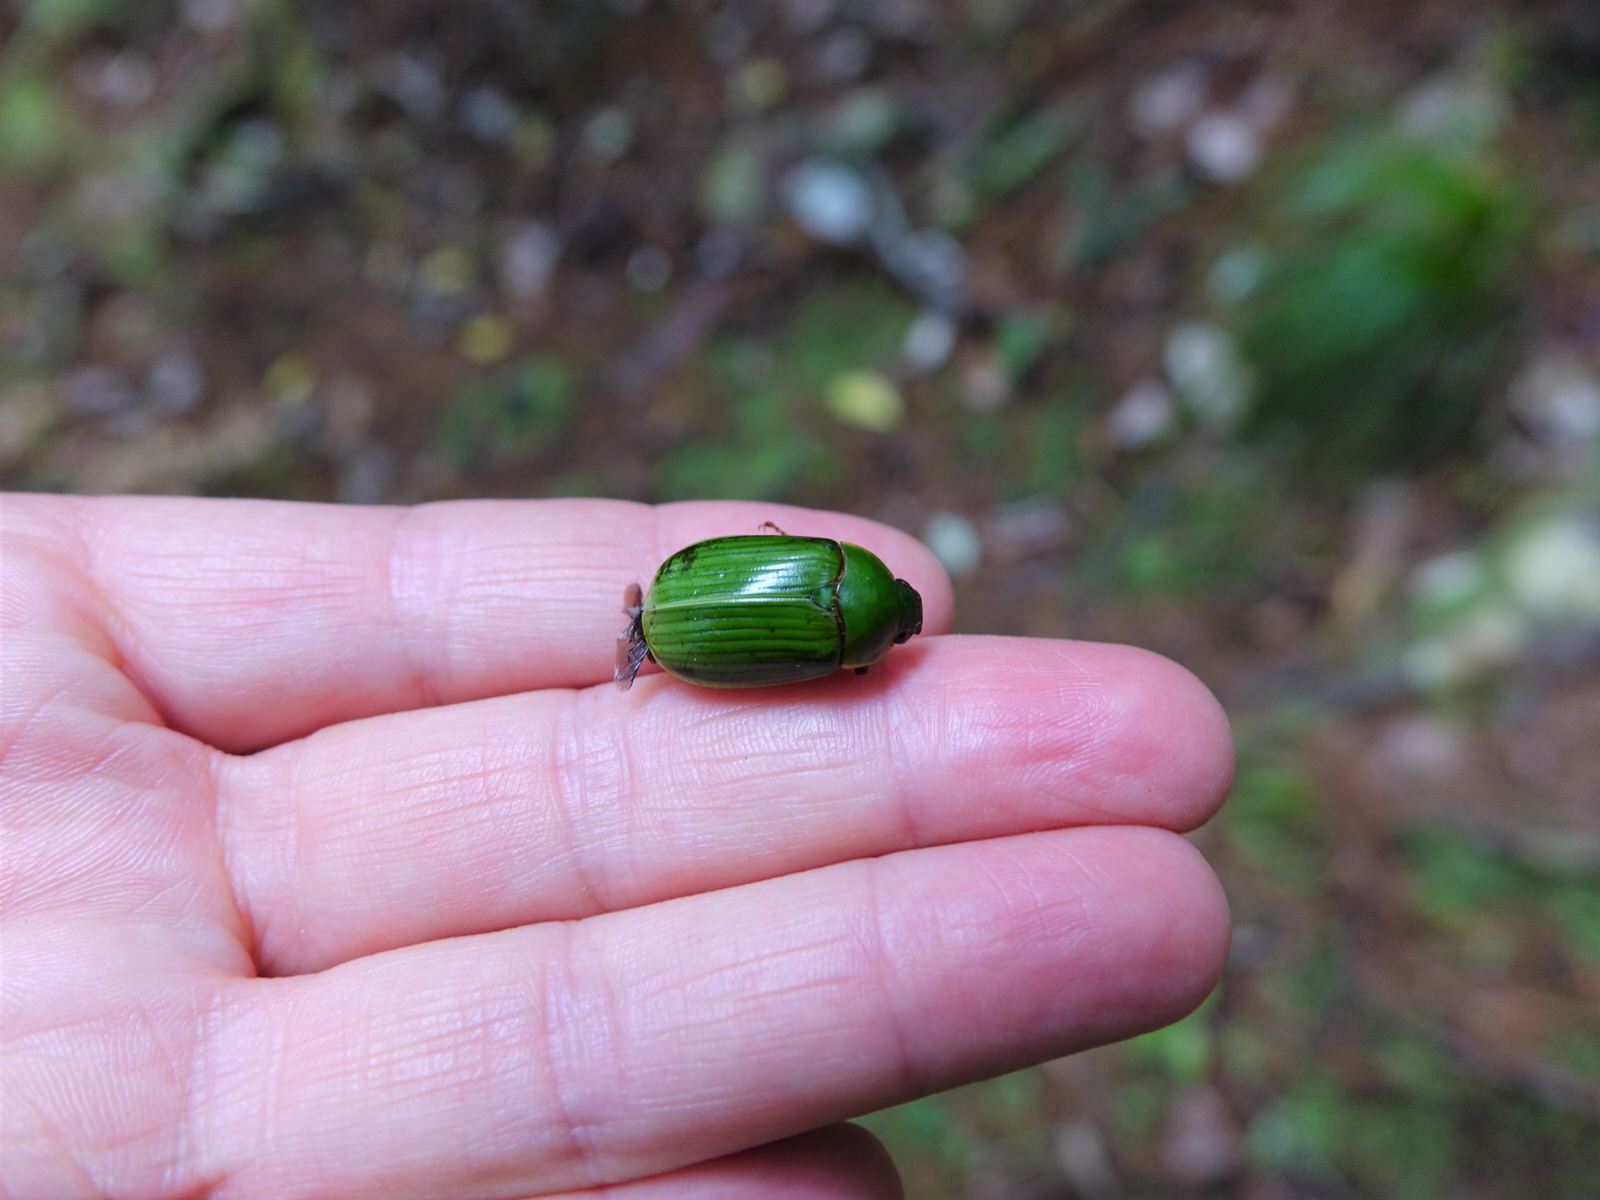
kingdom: Animalia
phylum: Arthropoda
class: Insecta
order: Coleoptera
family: Scarabaeidae
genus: Stethaspis
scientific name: Stethaspis longicornis
